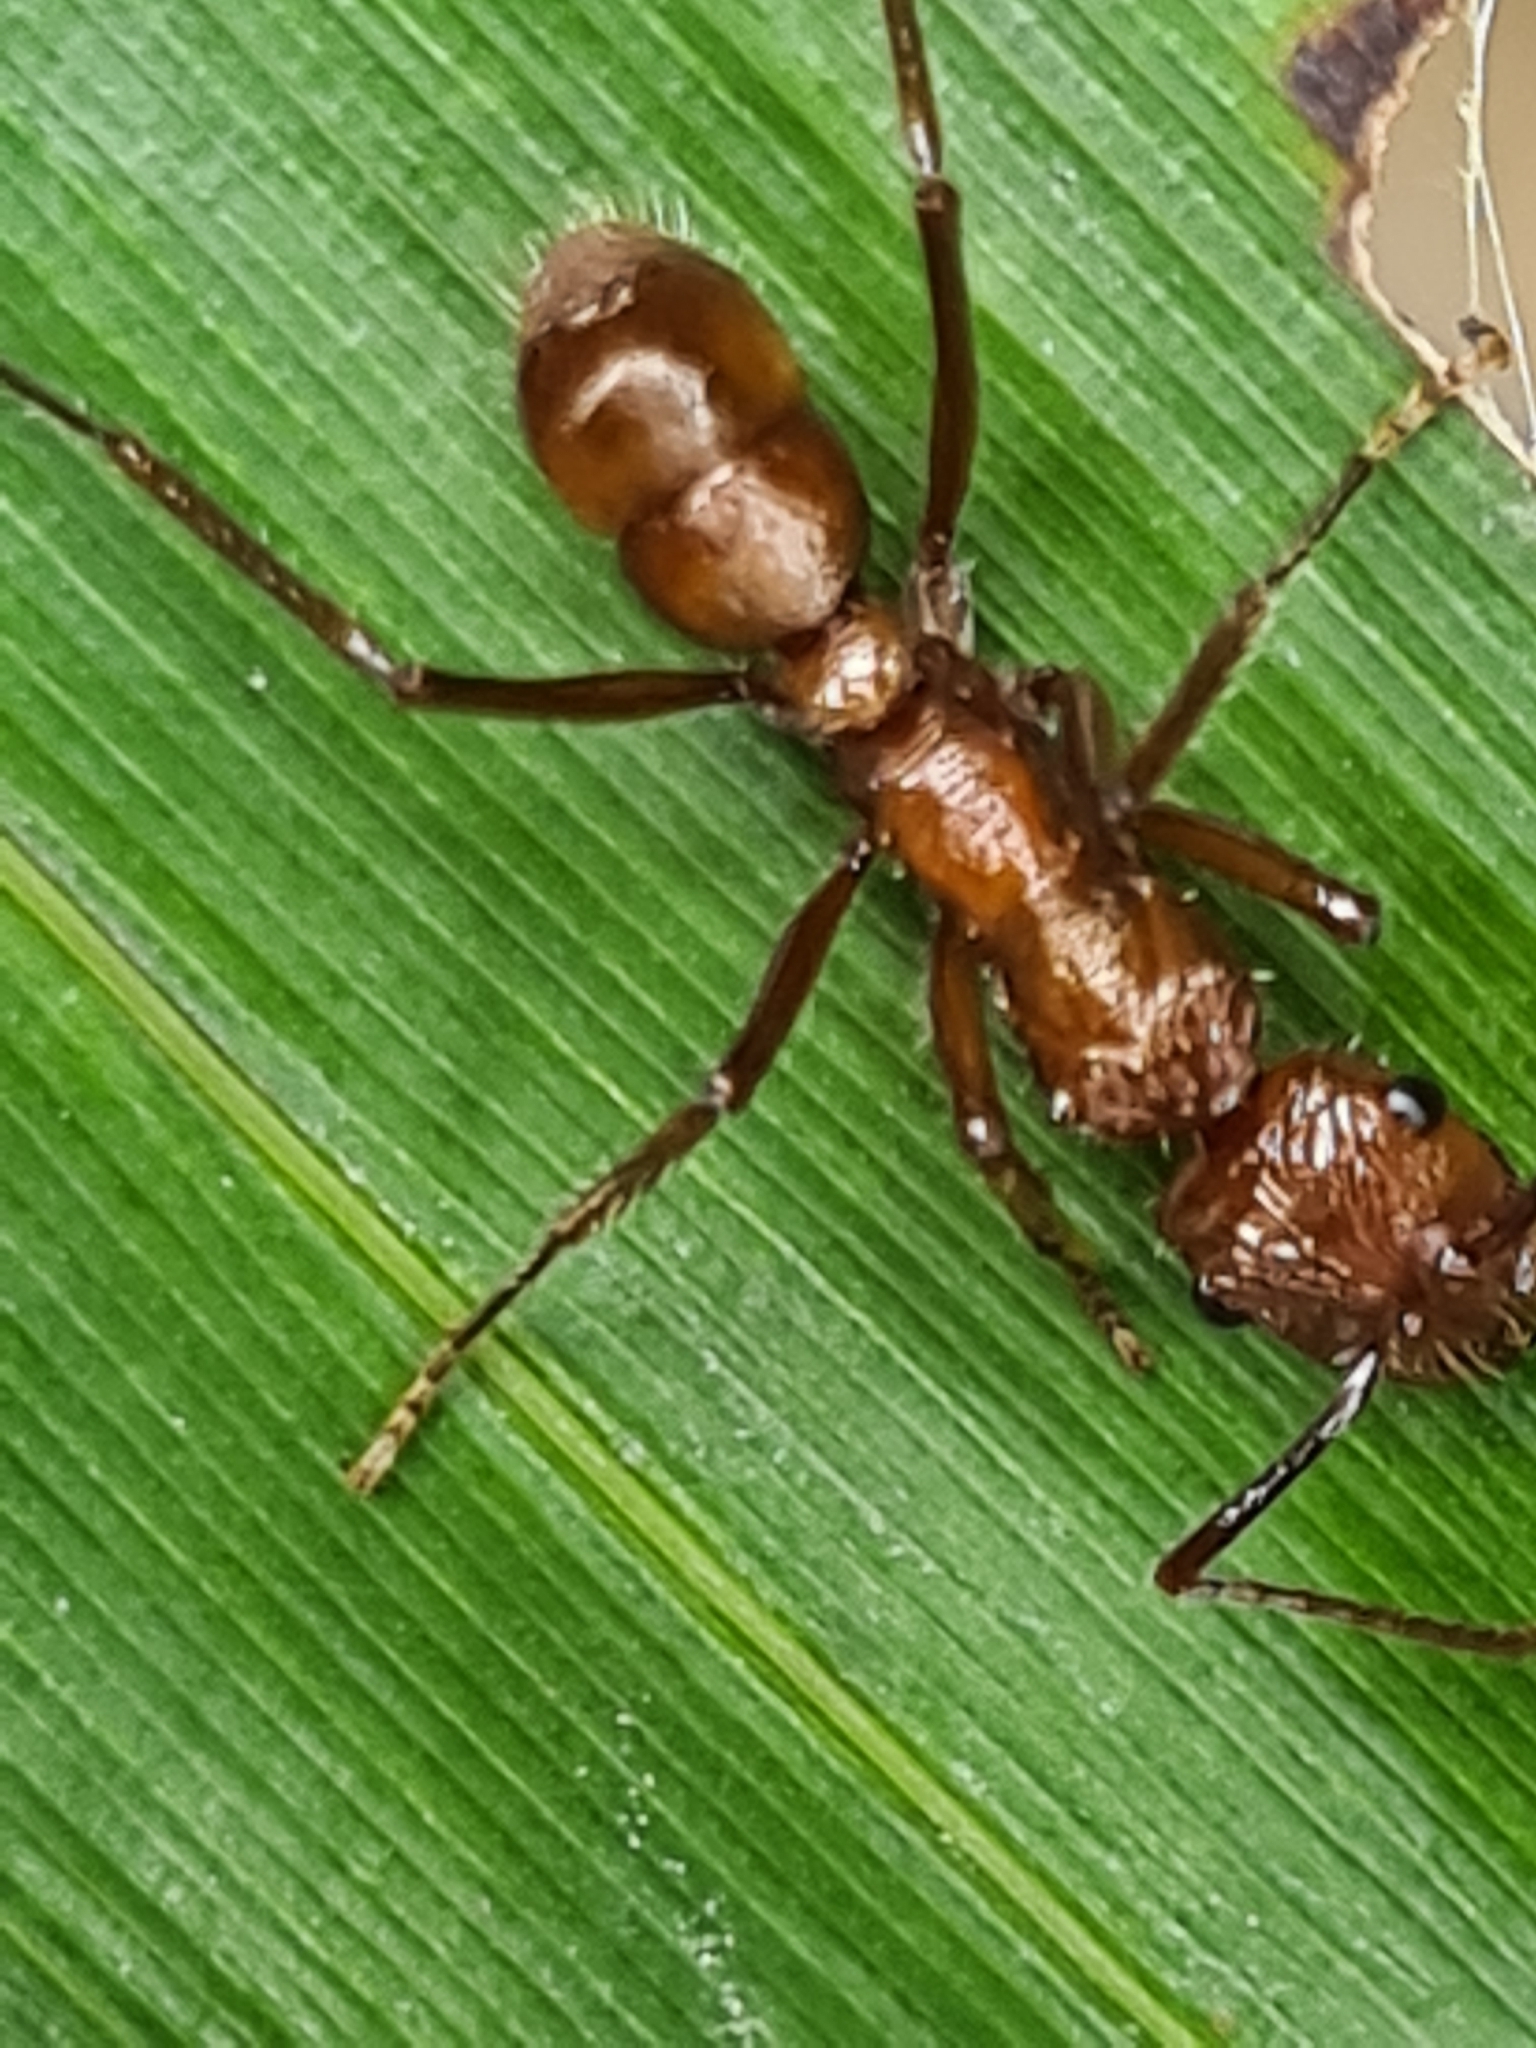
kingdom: Animalia
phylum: Arthropoda
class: Insecta
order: Hymenoptera
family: Formicidae
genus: Ectatomma
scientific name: Ectatomma tuberculatum
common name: Ant
